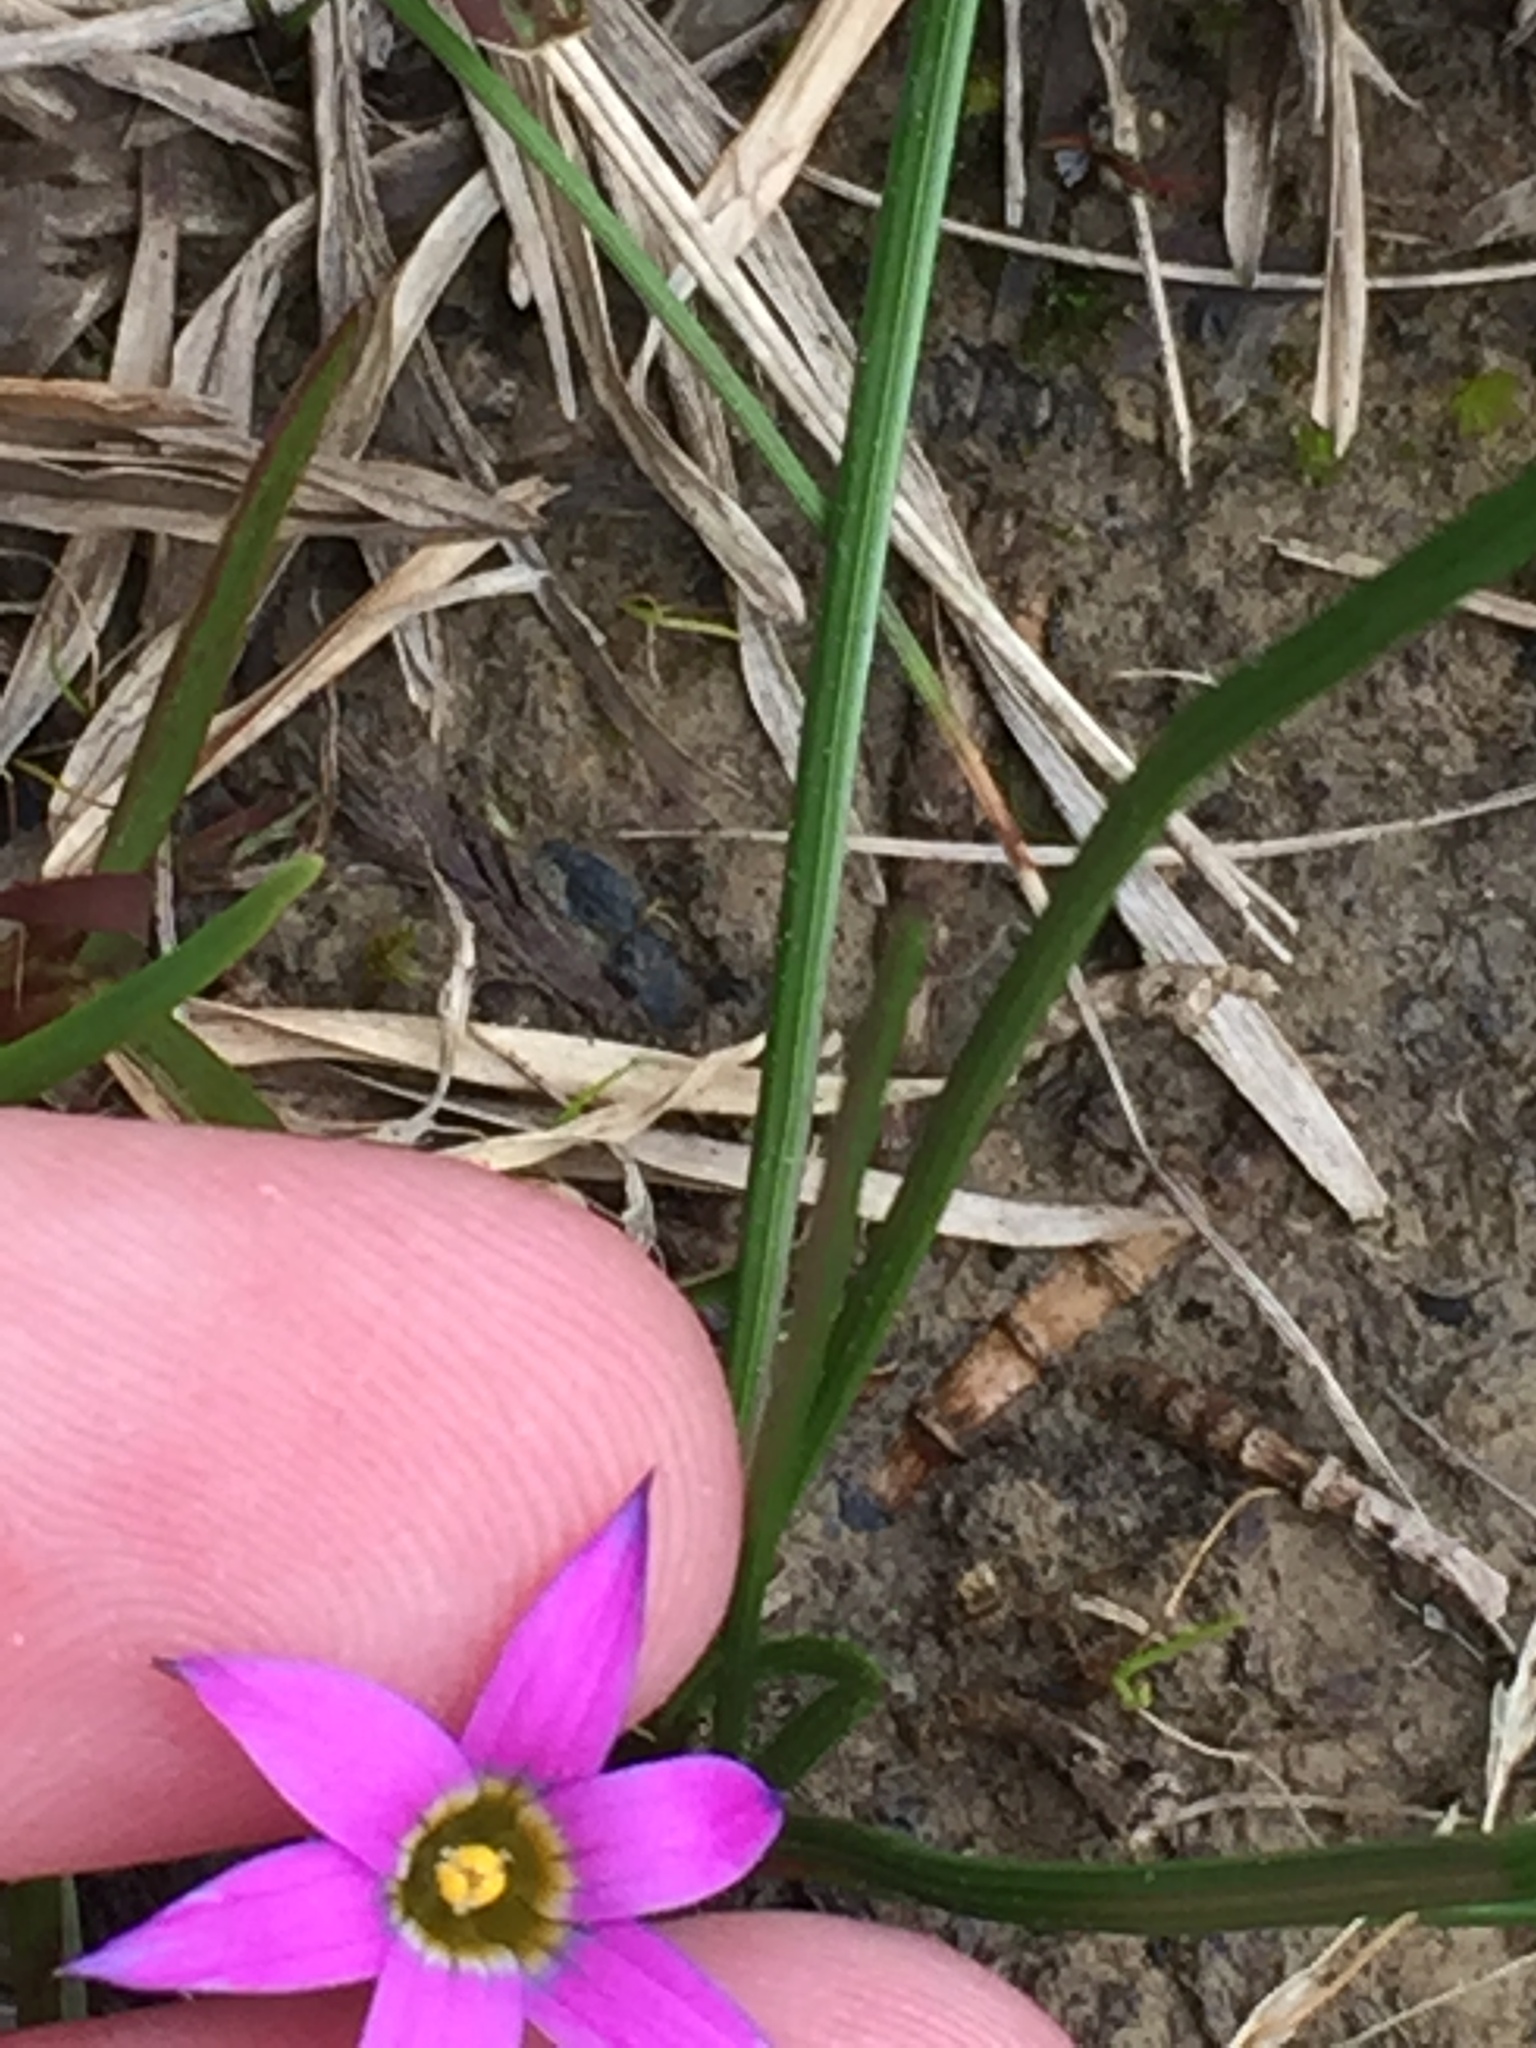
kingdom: Plantae
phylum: Tracheophyta
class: Liliopsida
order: Asparagales
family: Iridaceae
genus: Romulea
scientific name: Romulea rosea
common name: Oniongrass
